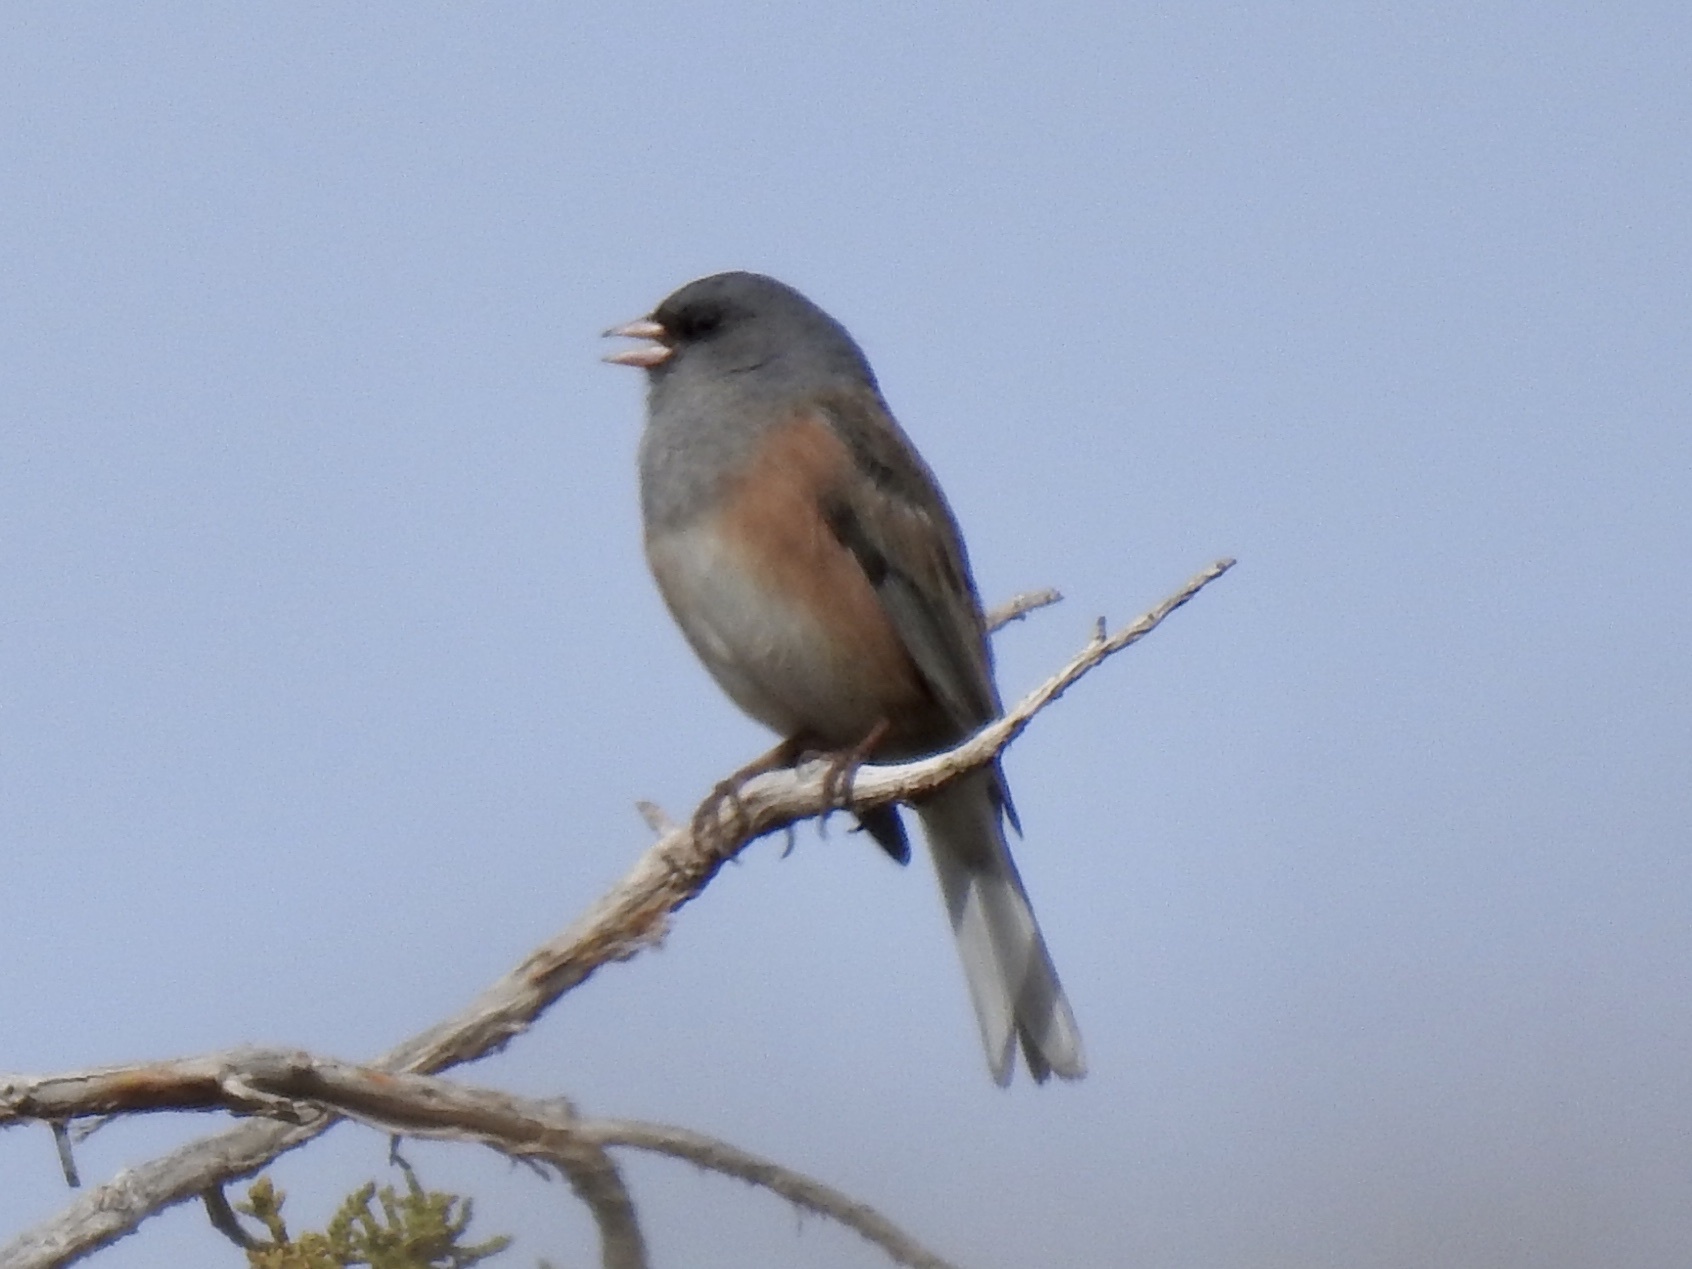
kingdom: Animalia
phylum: Chordata
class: Aves
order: Passeriformes
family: Passerellidae
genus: Junco
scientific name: Junco hyemalis
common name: Dark-eyed junco
